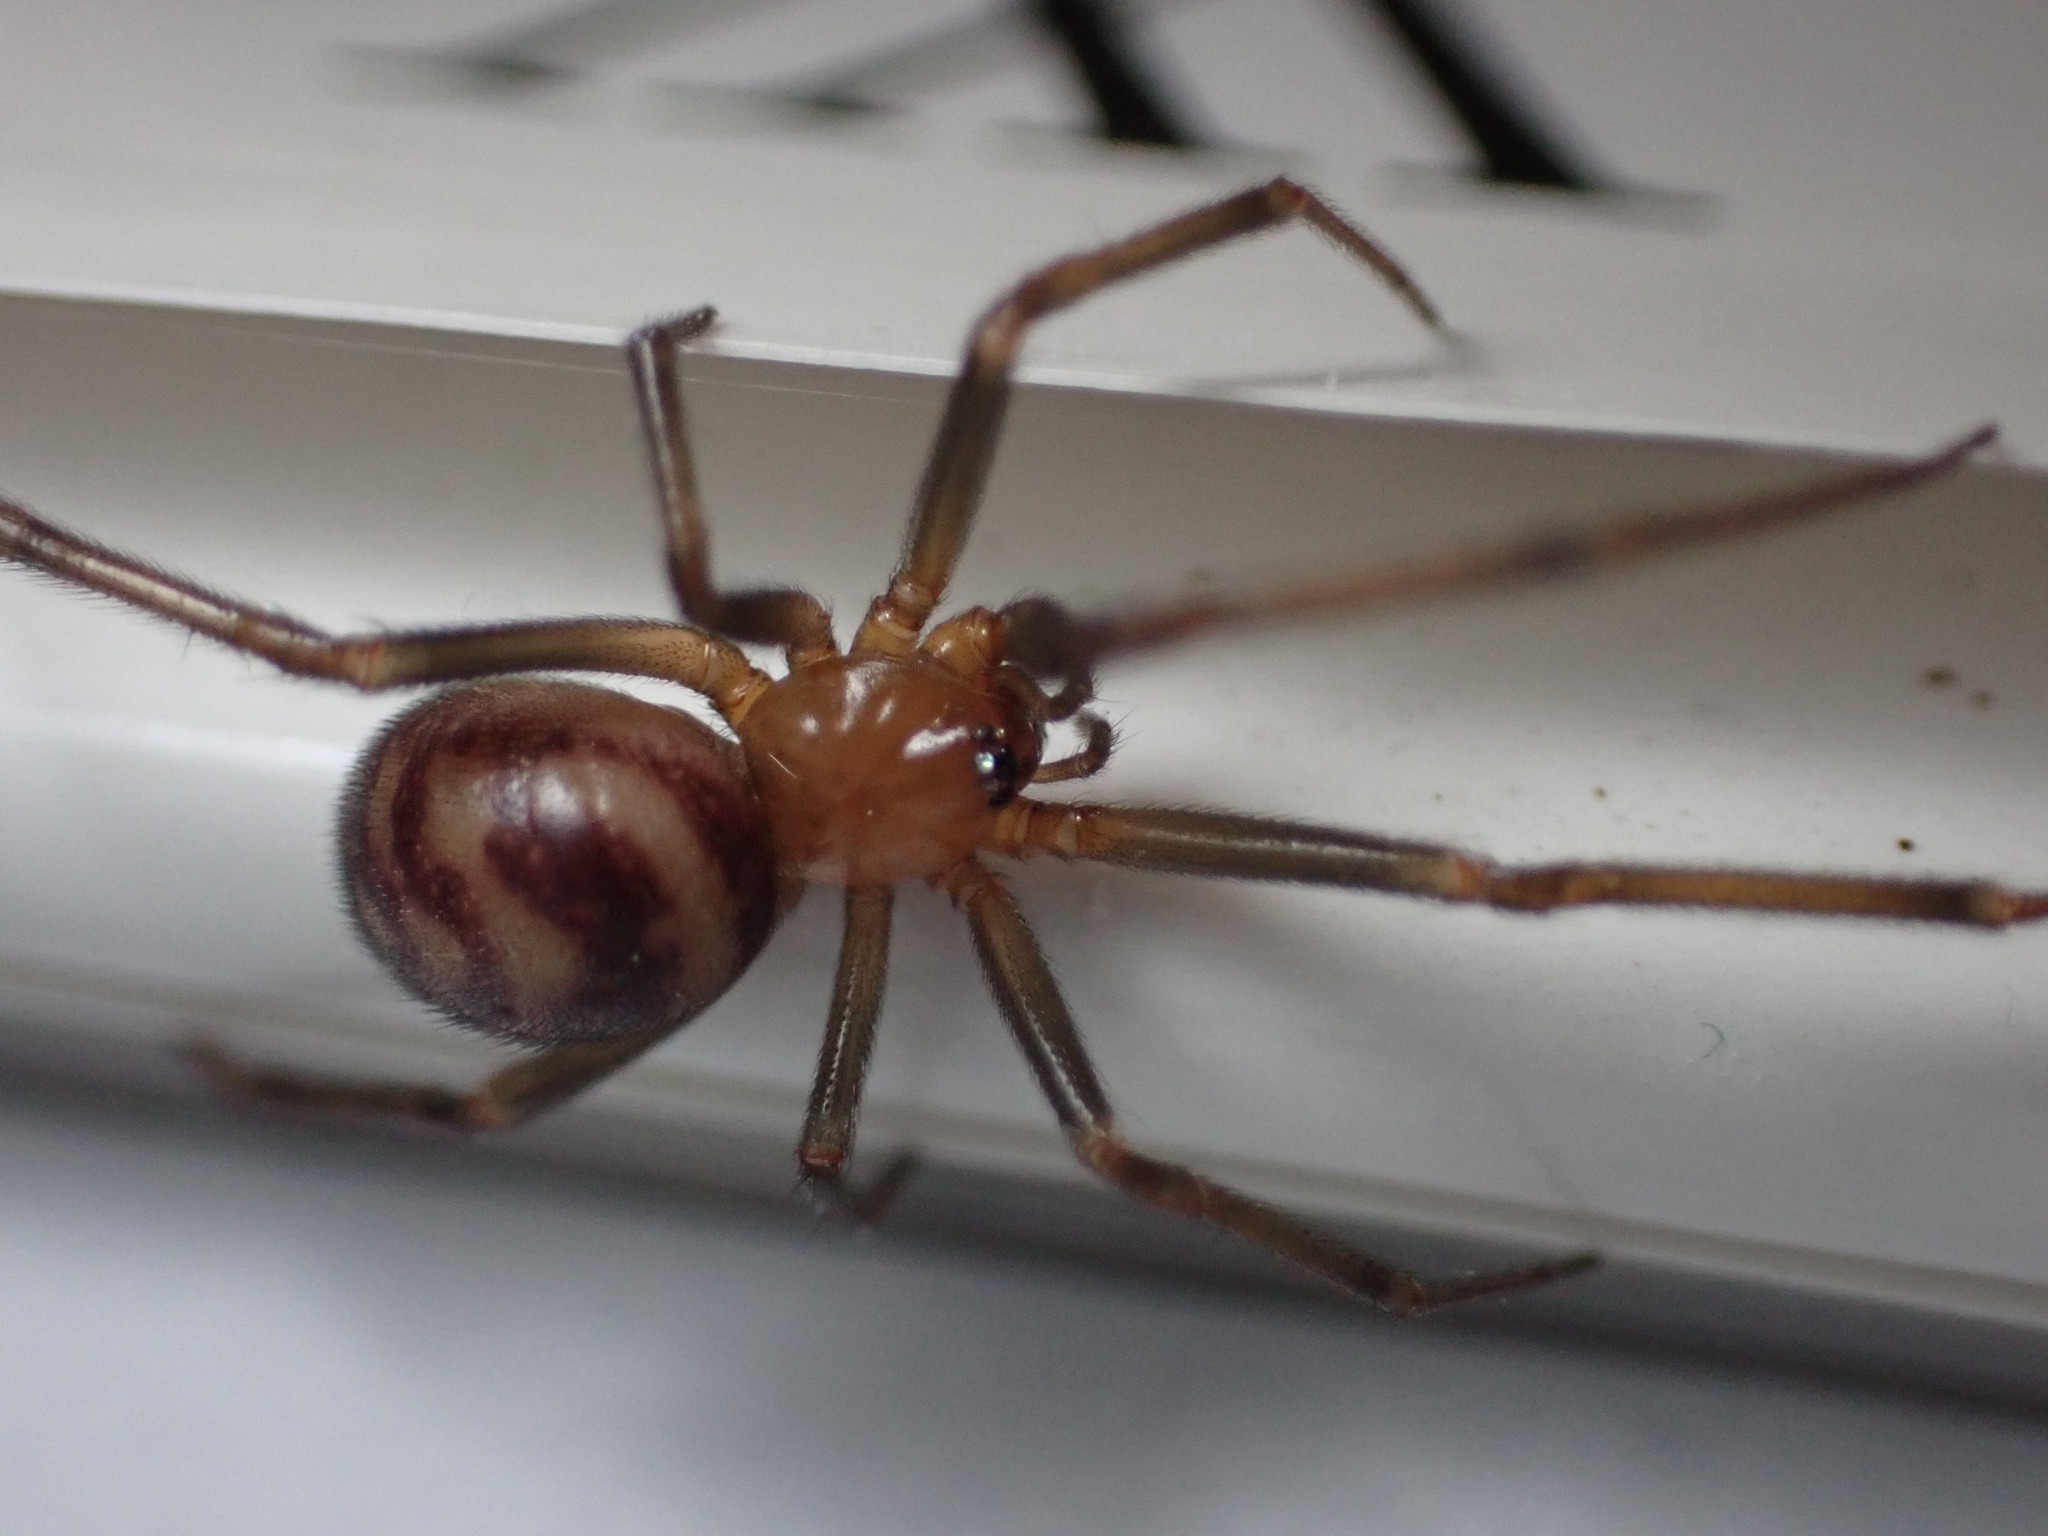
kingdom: Animalia
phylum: Arthropoda
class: Arachnida
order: Araneae
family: Theridiidae
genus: Steatoda
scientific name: Steatoda grossa
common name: False black widow
